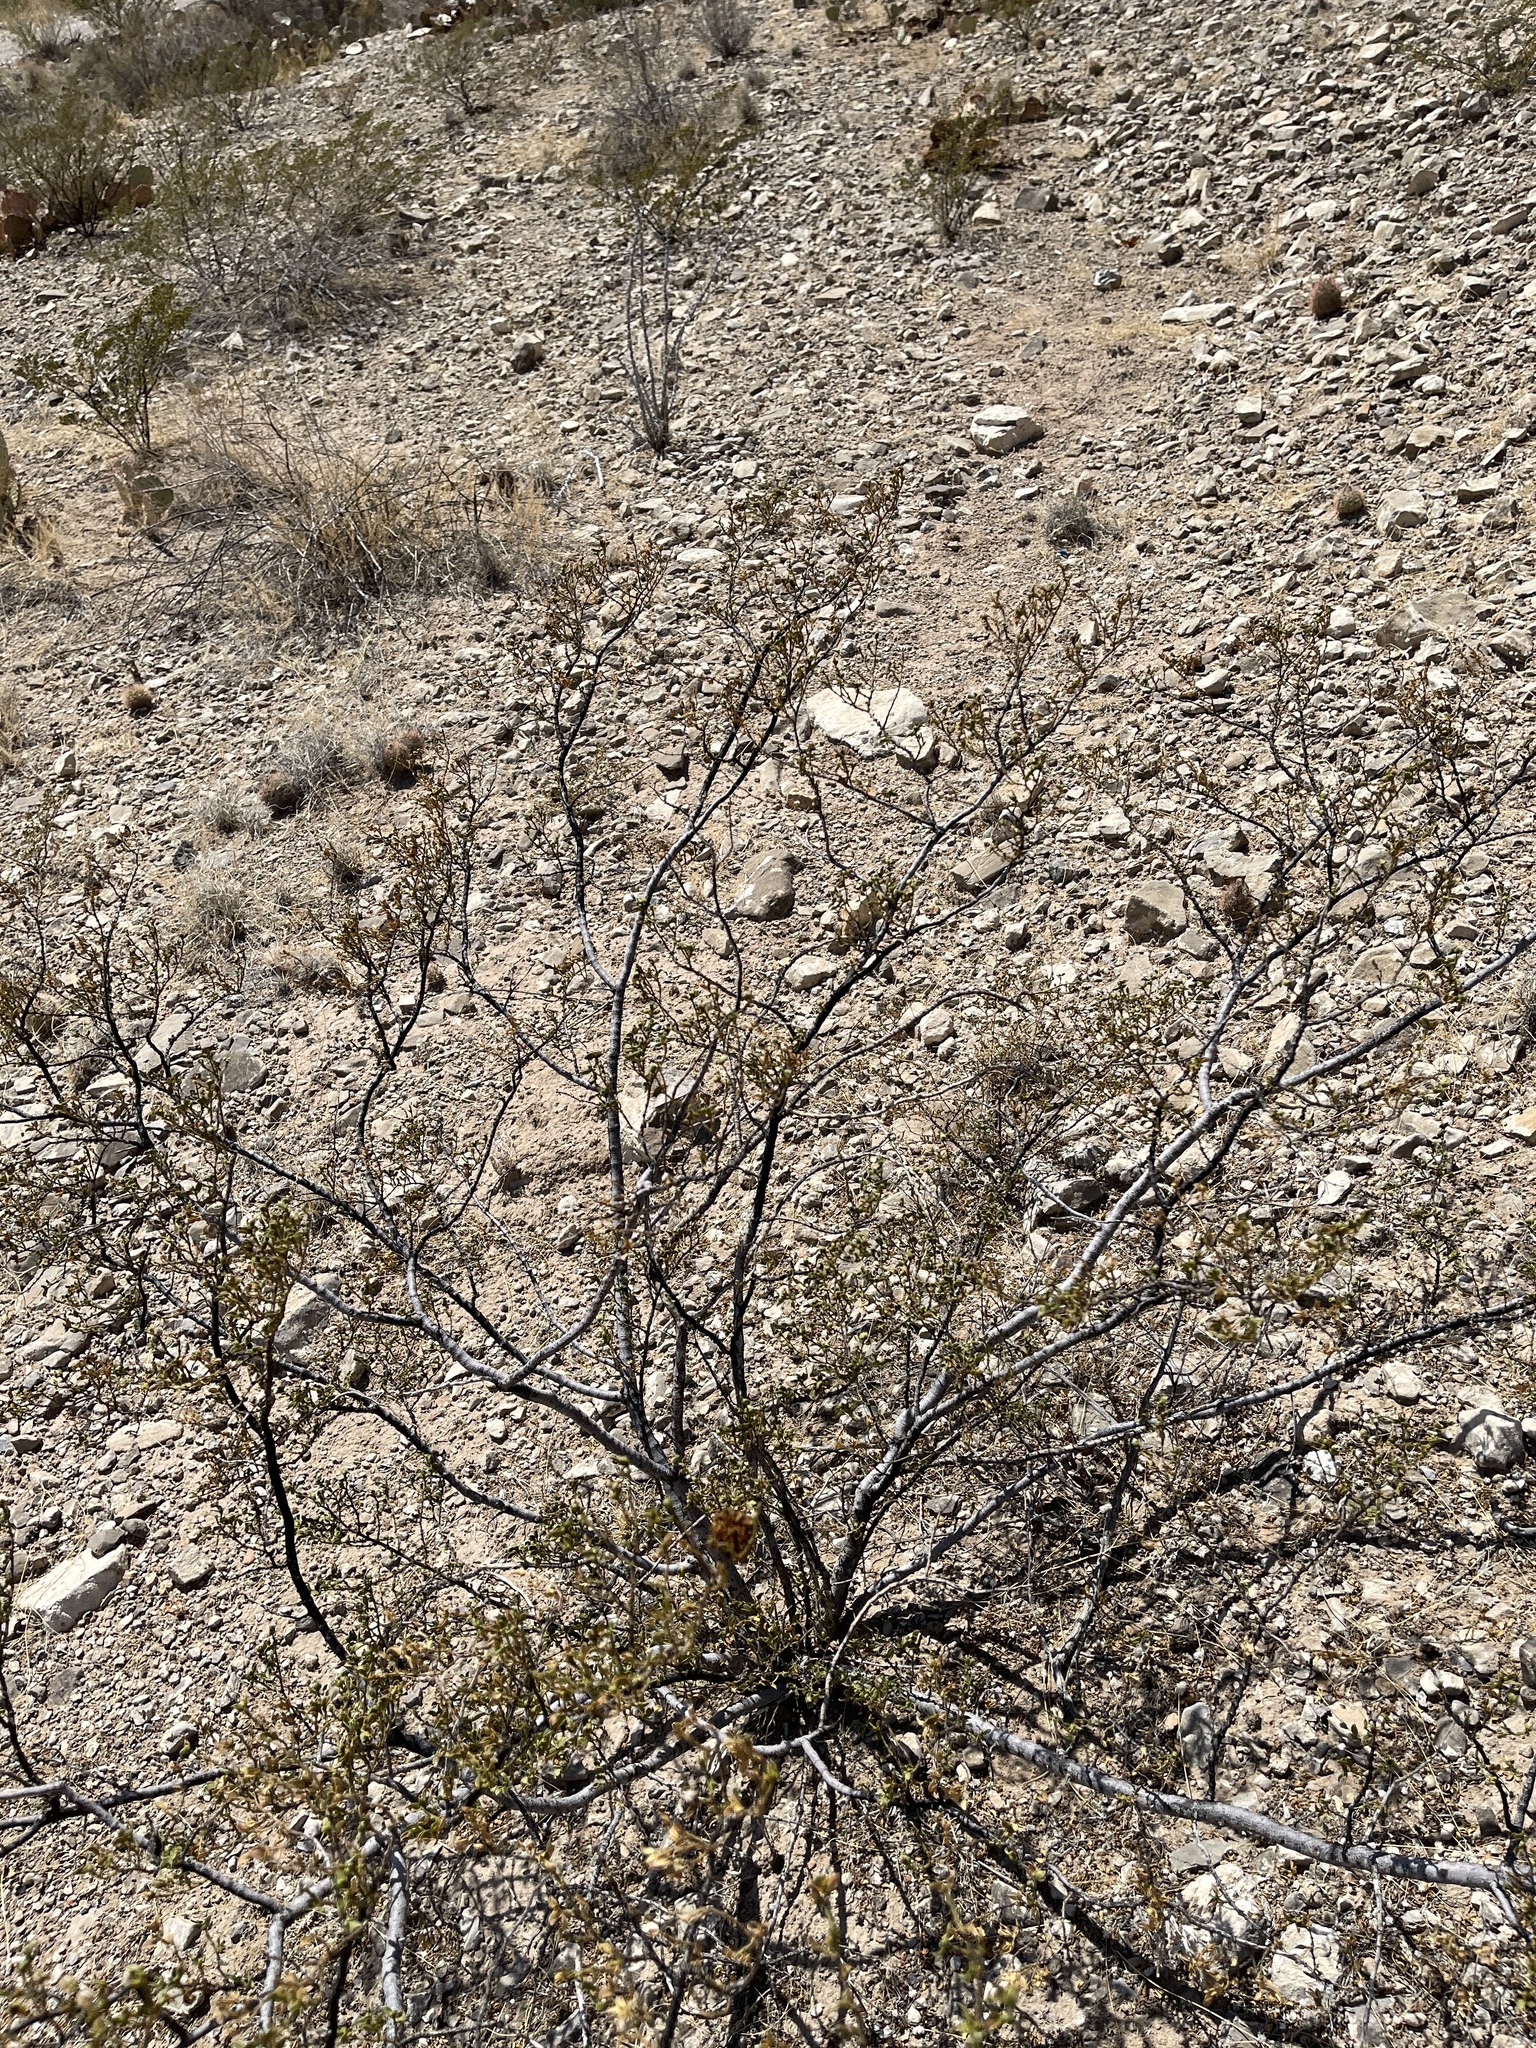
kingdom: Plantae
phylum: Tracheophyta
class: Magnoliopsida
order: Zygophyllales
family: Zygophyllaceae
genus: Larrea
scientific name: Larrea tridentata
